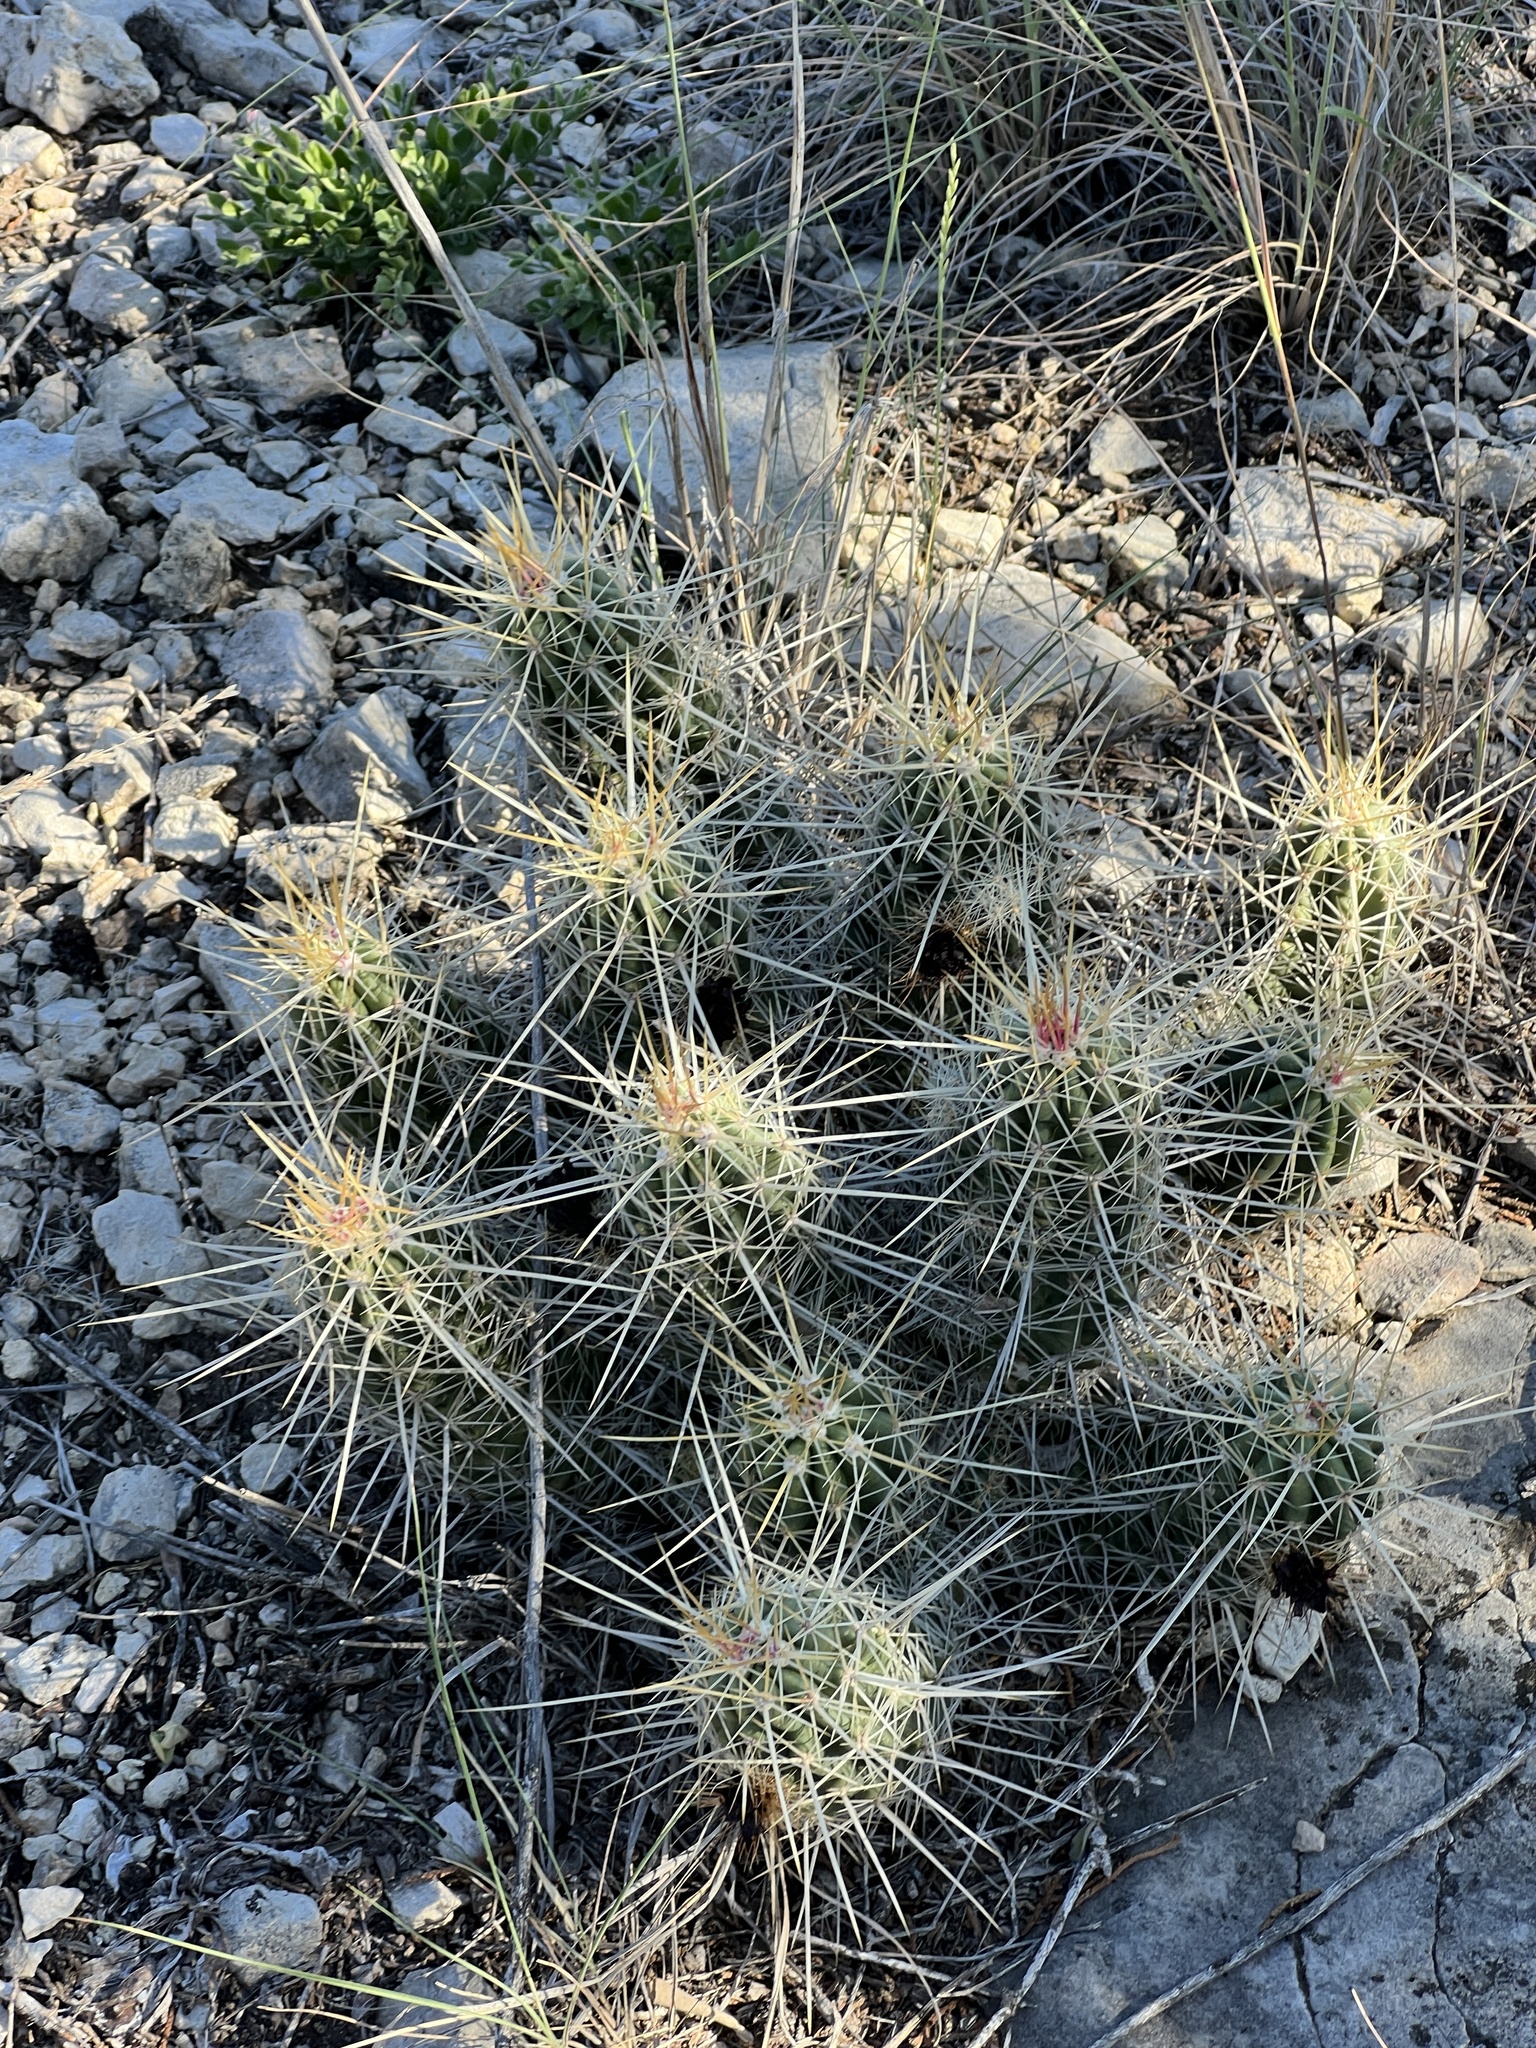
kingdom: Plantae
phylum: Tracheophyta
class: Magnoliopsida
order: Caryophyllales
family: Cactaceae
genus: Echinocereus
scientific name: Echinocereus enneacanthus
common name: Pitaya
